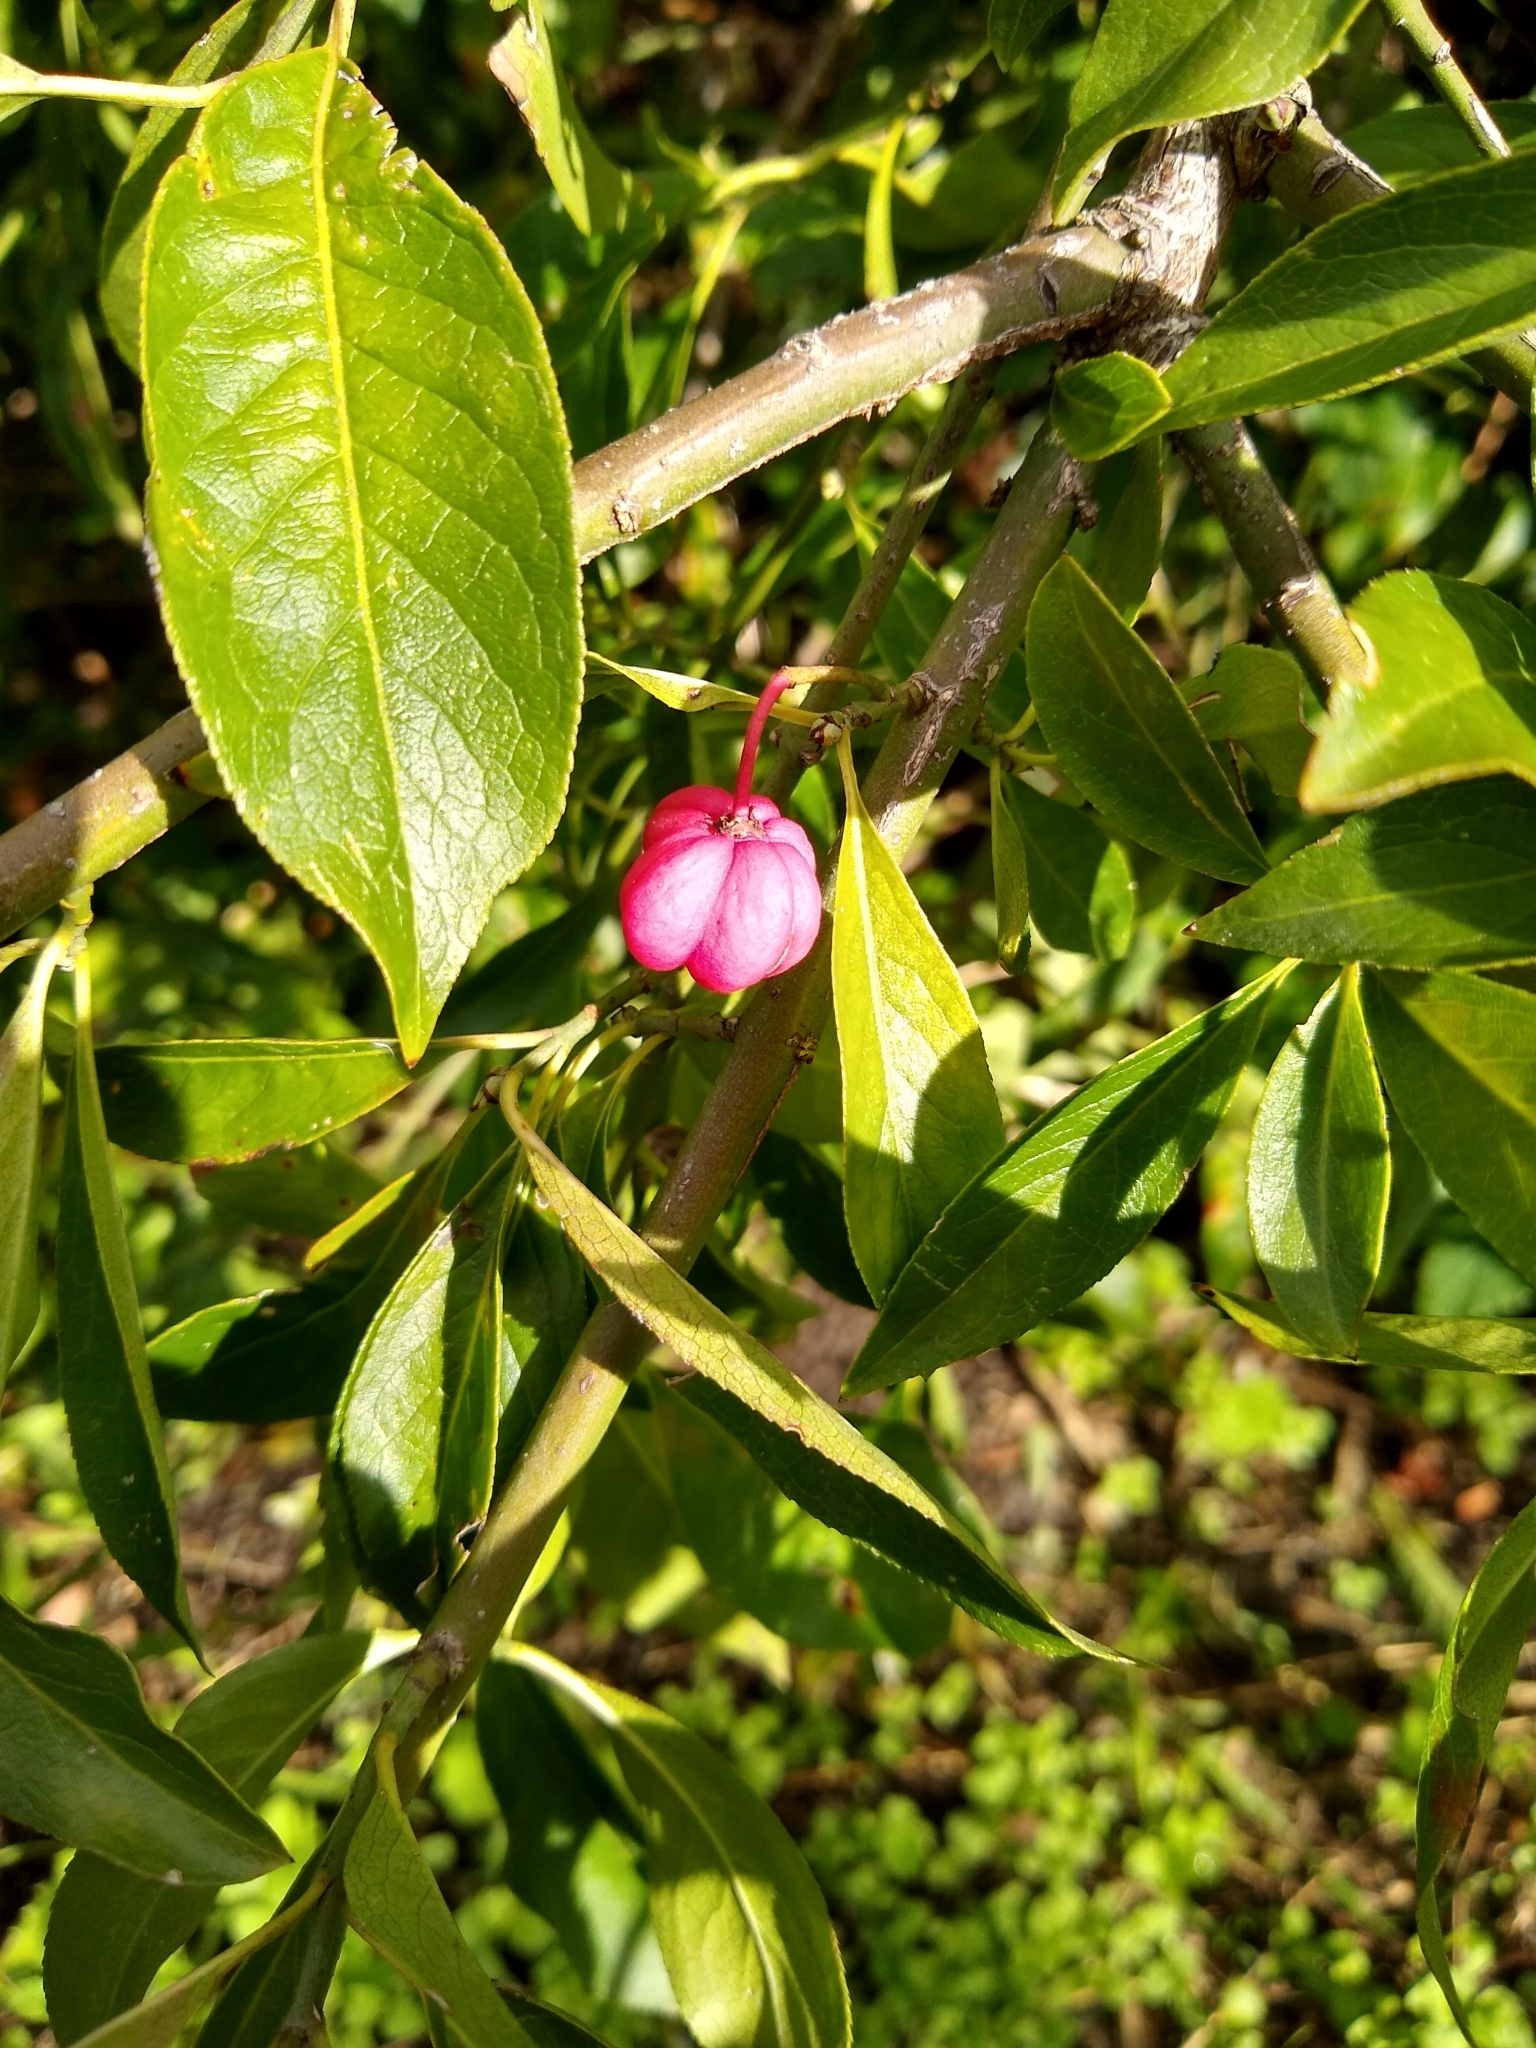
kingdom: Plantae
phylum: Tracheophyta
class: Magnoliopsida
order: Celastrales
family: Celastraceae
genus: Euonymus
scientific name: Euonymus europaeus
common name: Spindle
